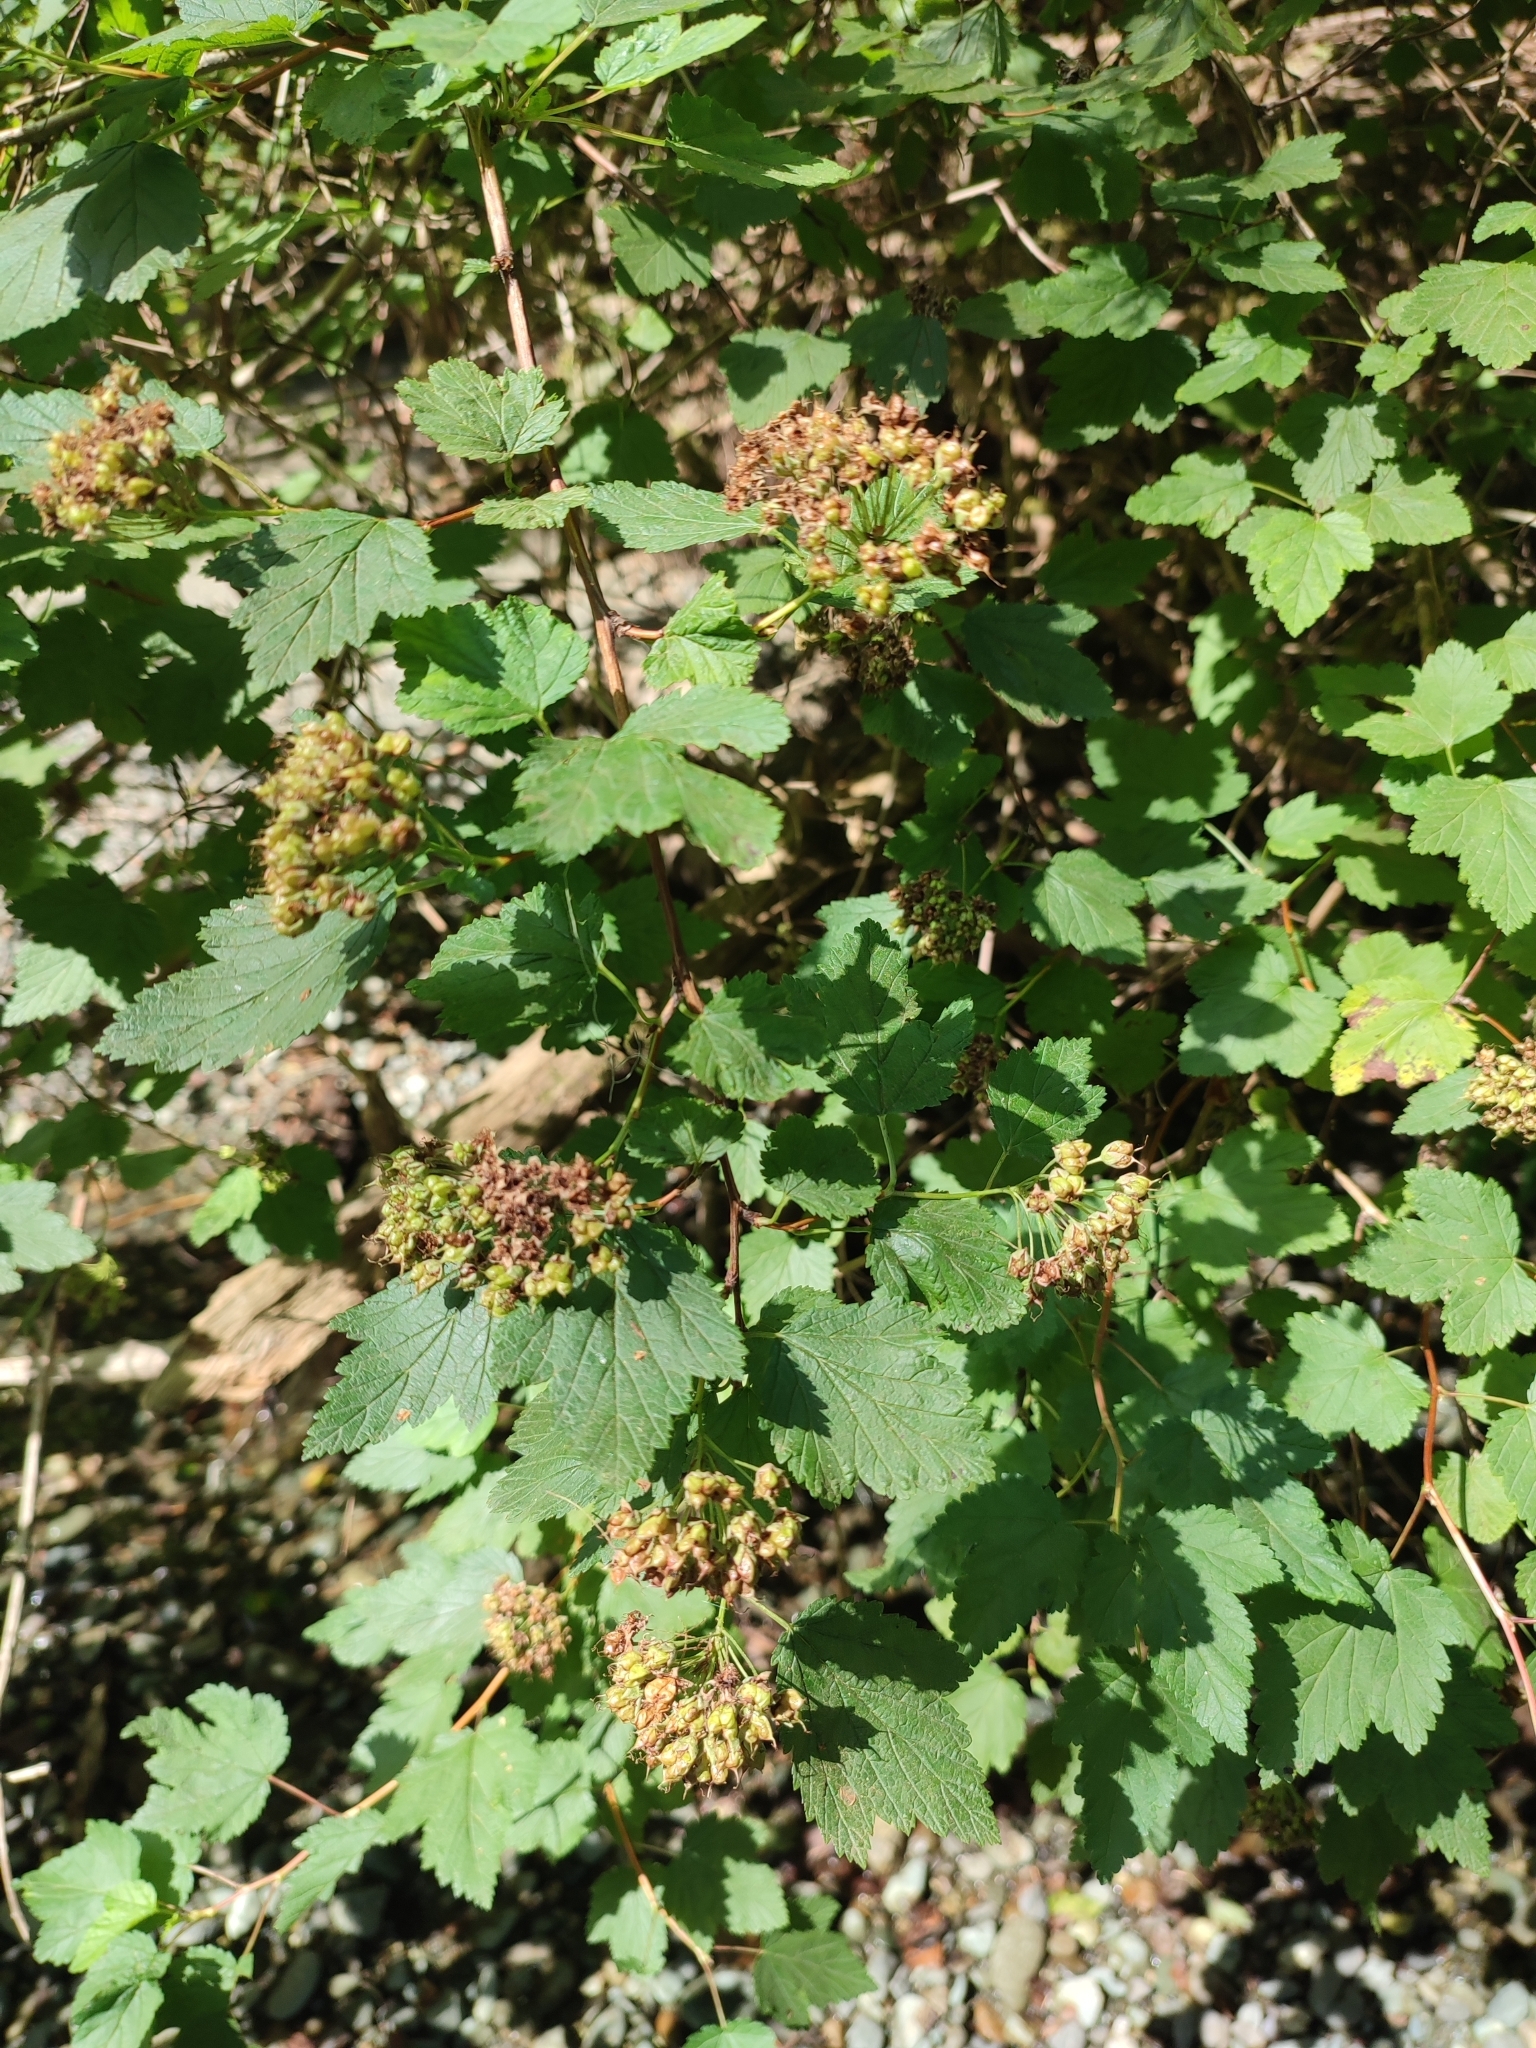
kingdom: Plantae
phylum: Tracheophyta
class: Magnoliopsida
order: Rosales
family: Rosaceae
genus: Physocarpus
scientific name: Physocarpus capitatus
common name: Pacific ninebark
